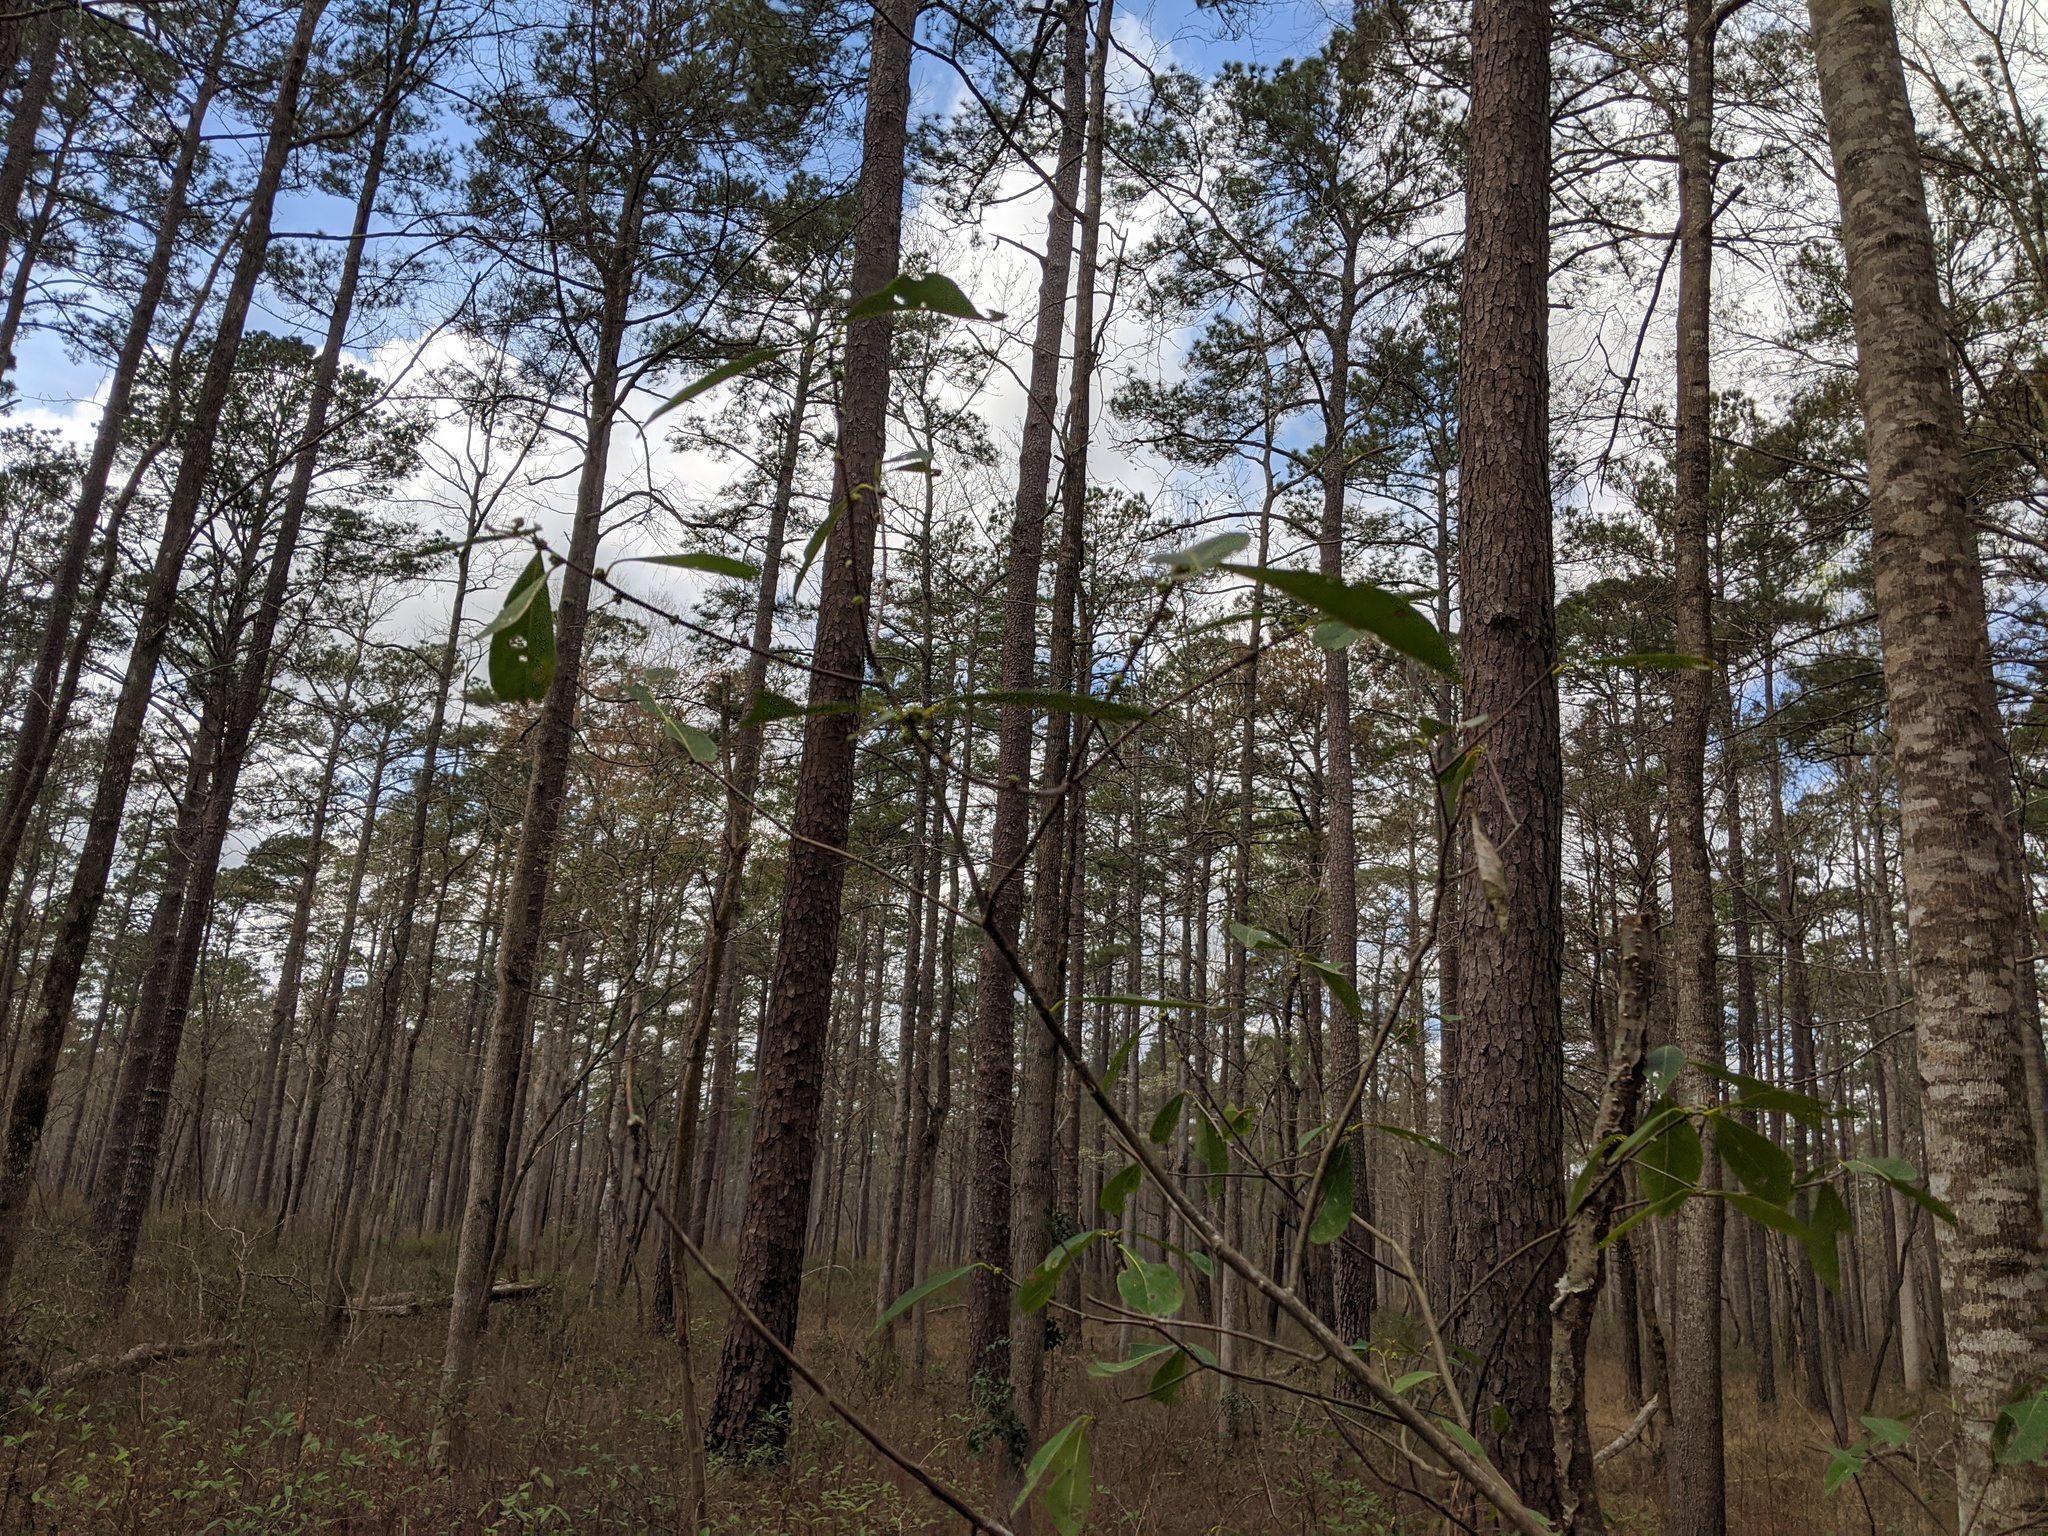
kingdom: Plantae
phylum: Tracheophyta
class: Magnoliopsida
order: Ericales
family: Symplocaceae
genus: Symplocos
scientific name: Symplocos tinctoria
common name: Horse-sugar
